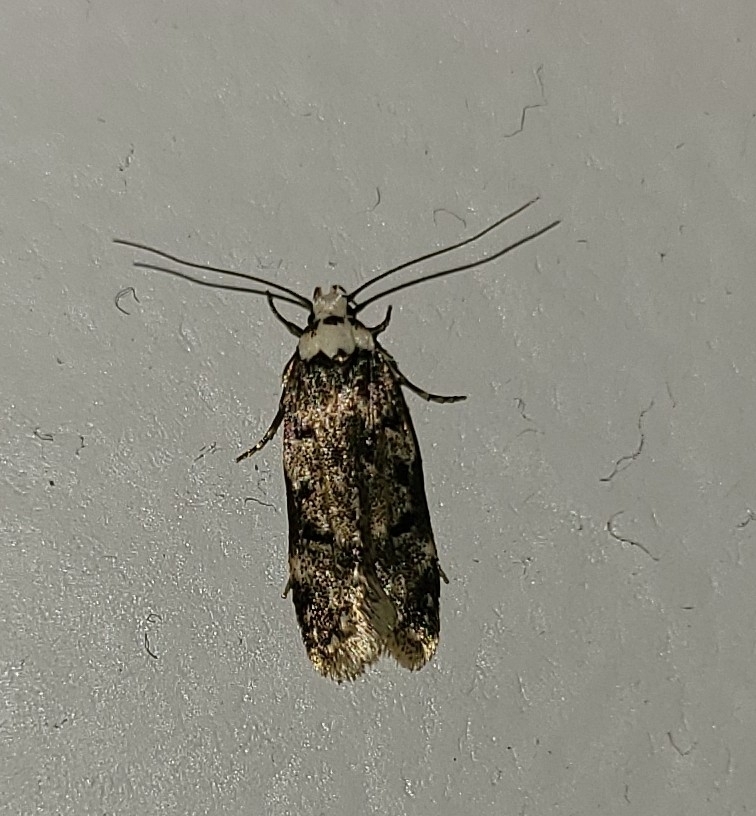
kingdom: Animalia
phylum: Arthropoda
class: Insecta
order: Lepidoptera
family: Oecophoridae
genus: Endrosis
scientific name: Endrosis sarcitrella
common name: White-shouldered house moth
